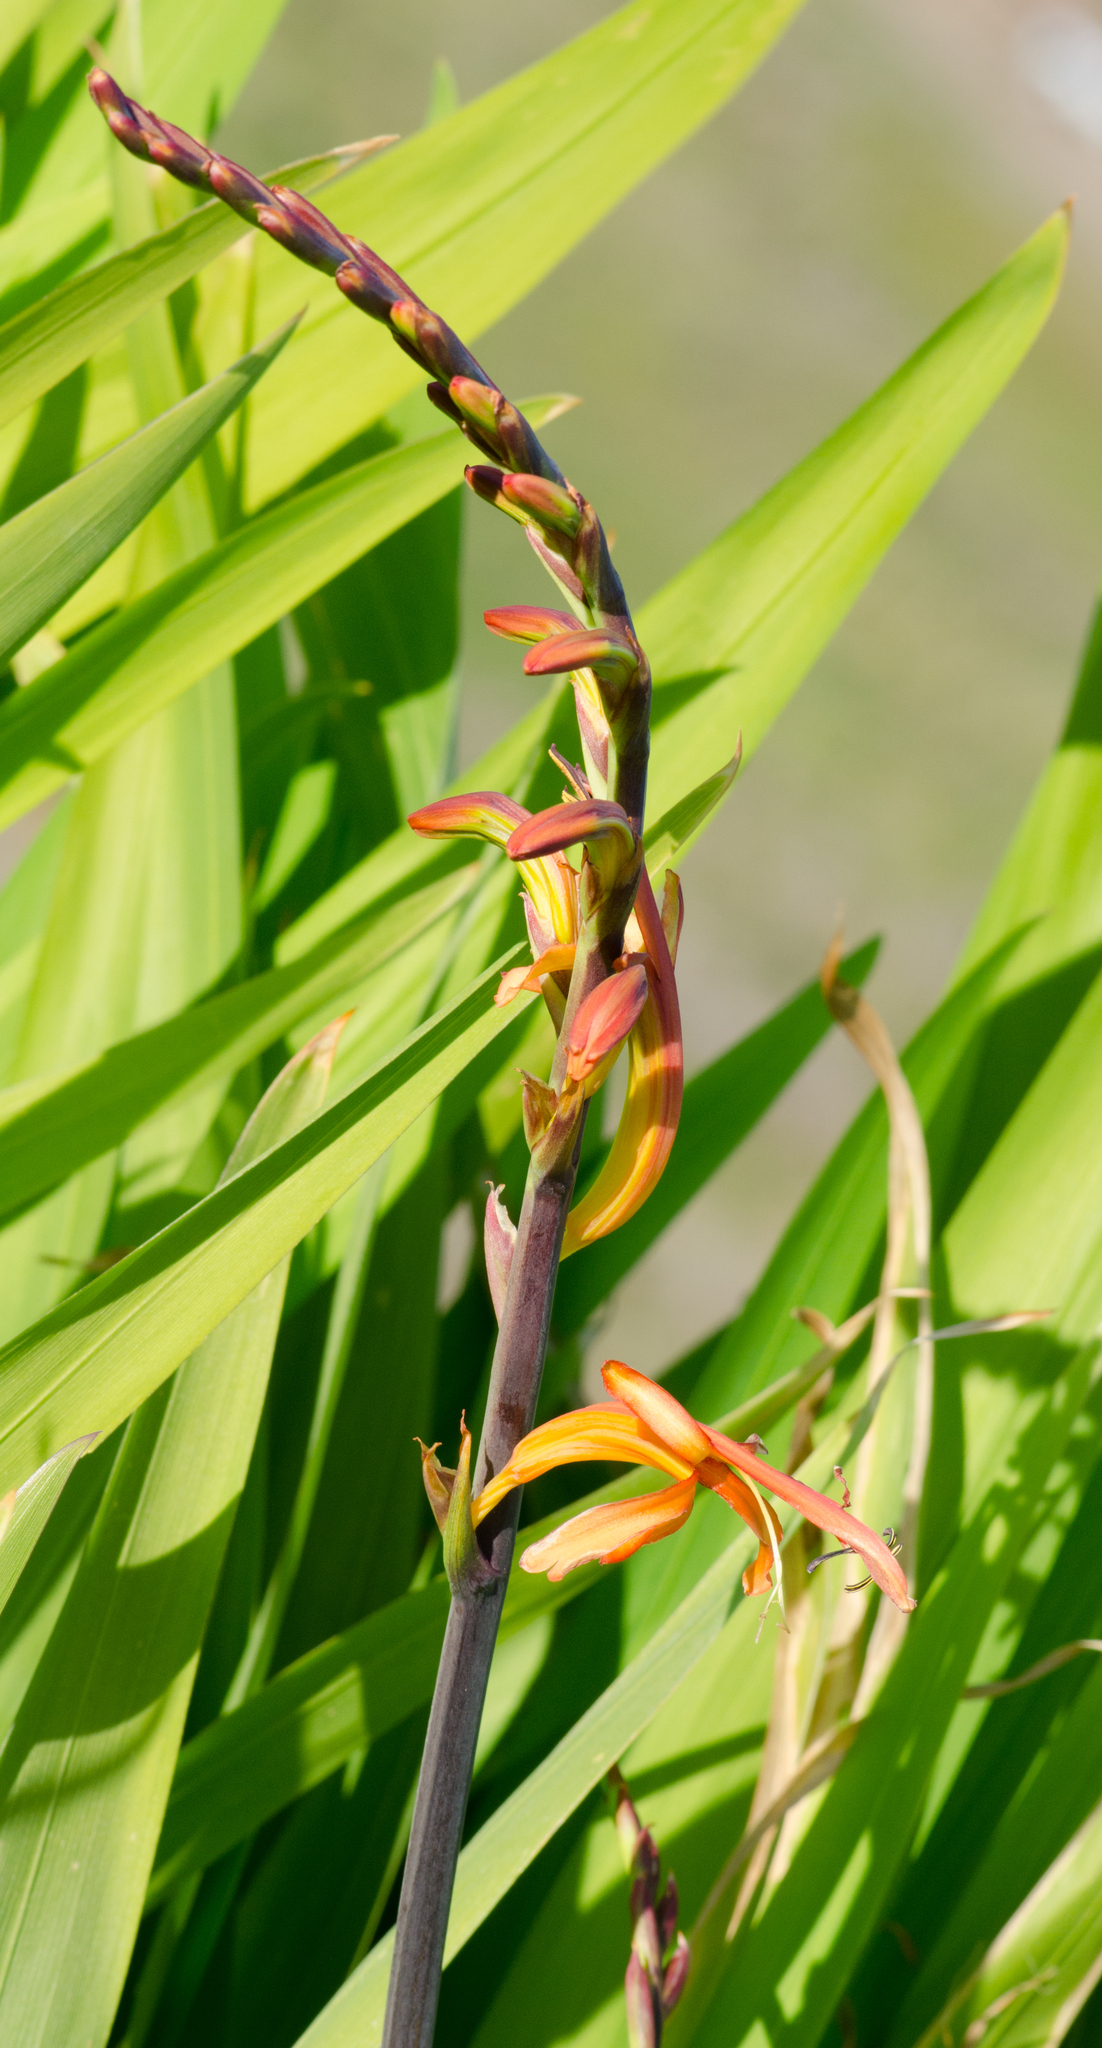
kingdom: Plantae
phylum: Tracheophyta
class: Liliopsida
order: Asparagales
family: Iridaceae
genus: Chasmanthe
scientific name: Chasmanthe floribunda
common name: African cornflag
